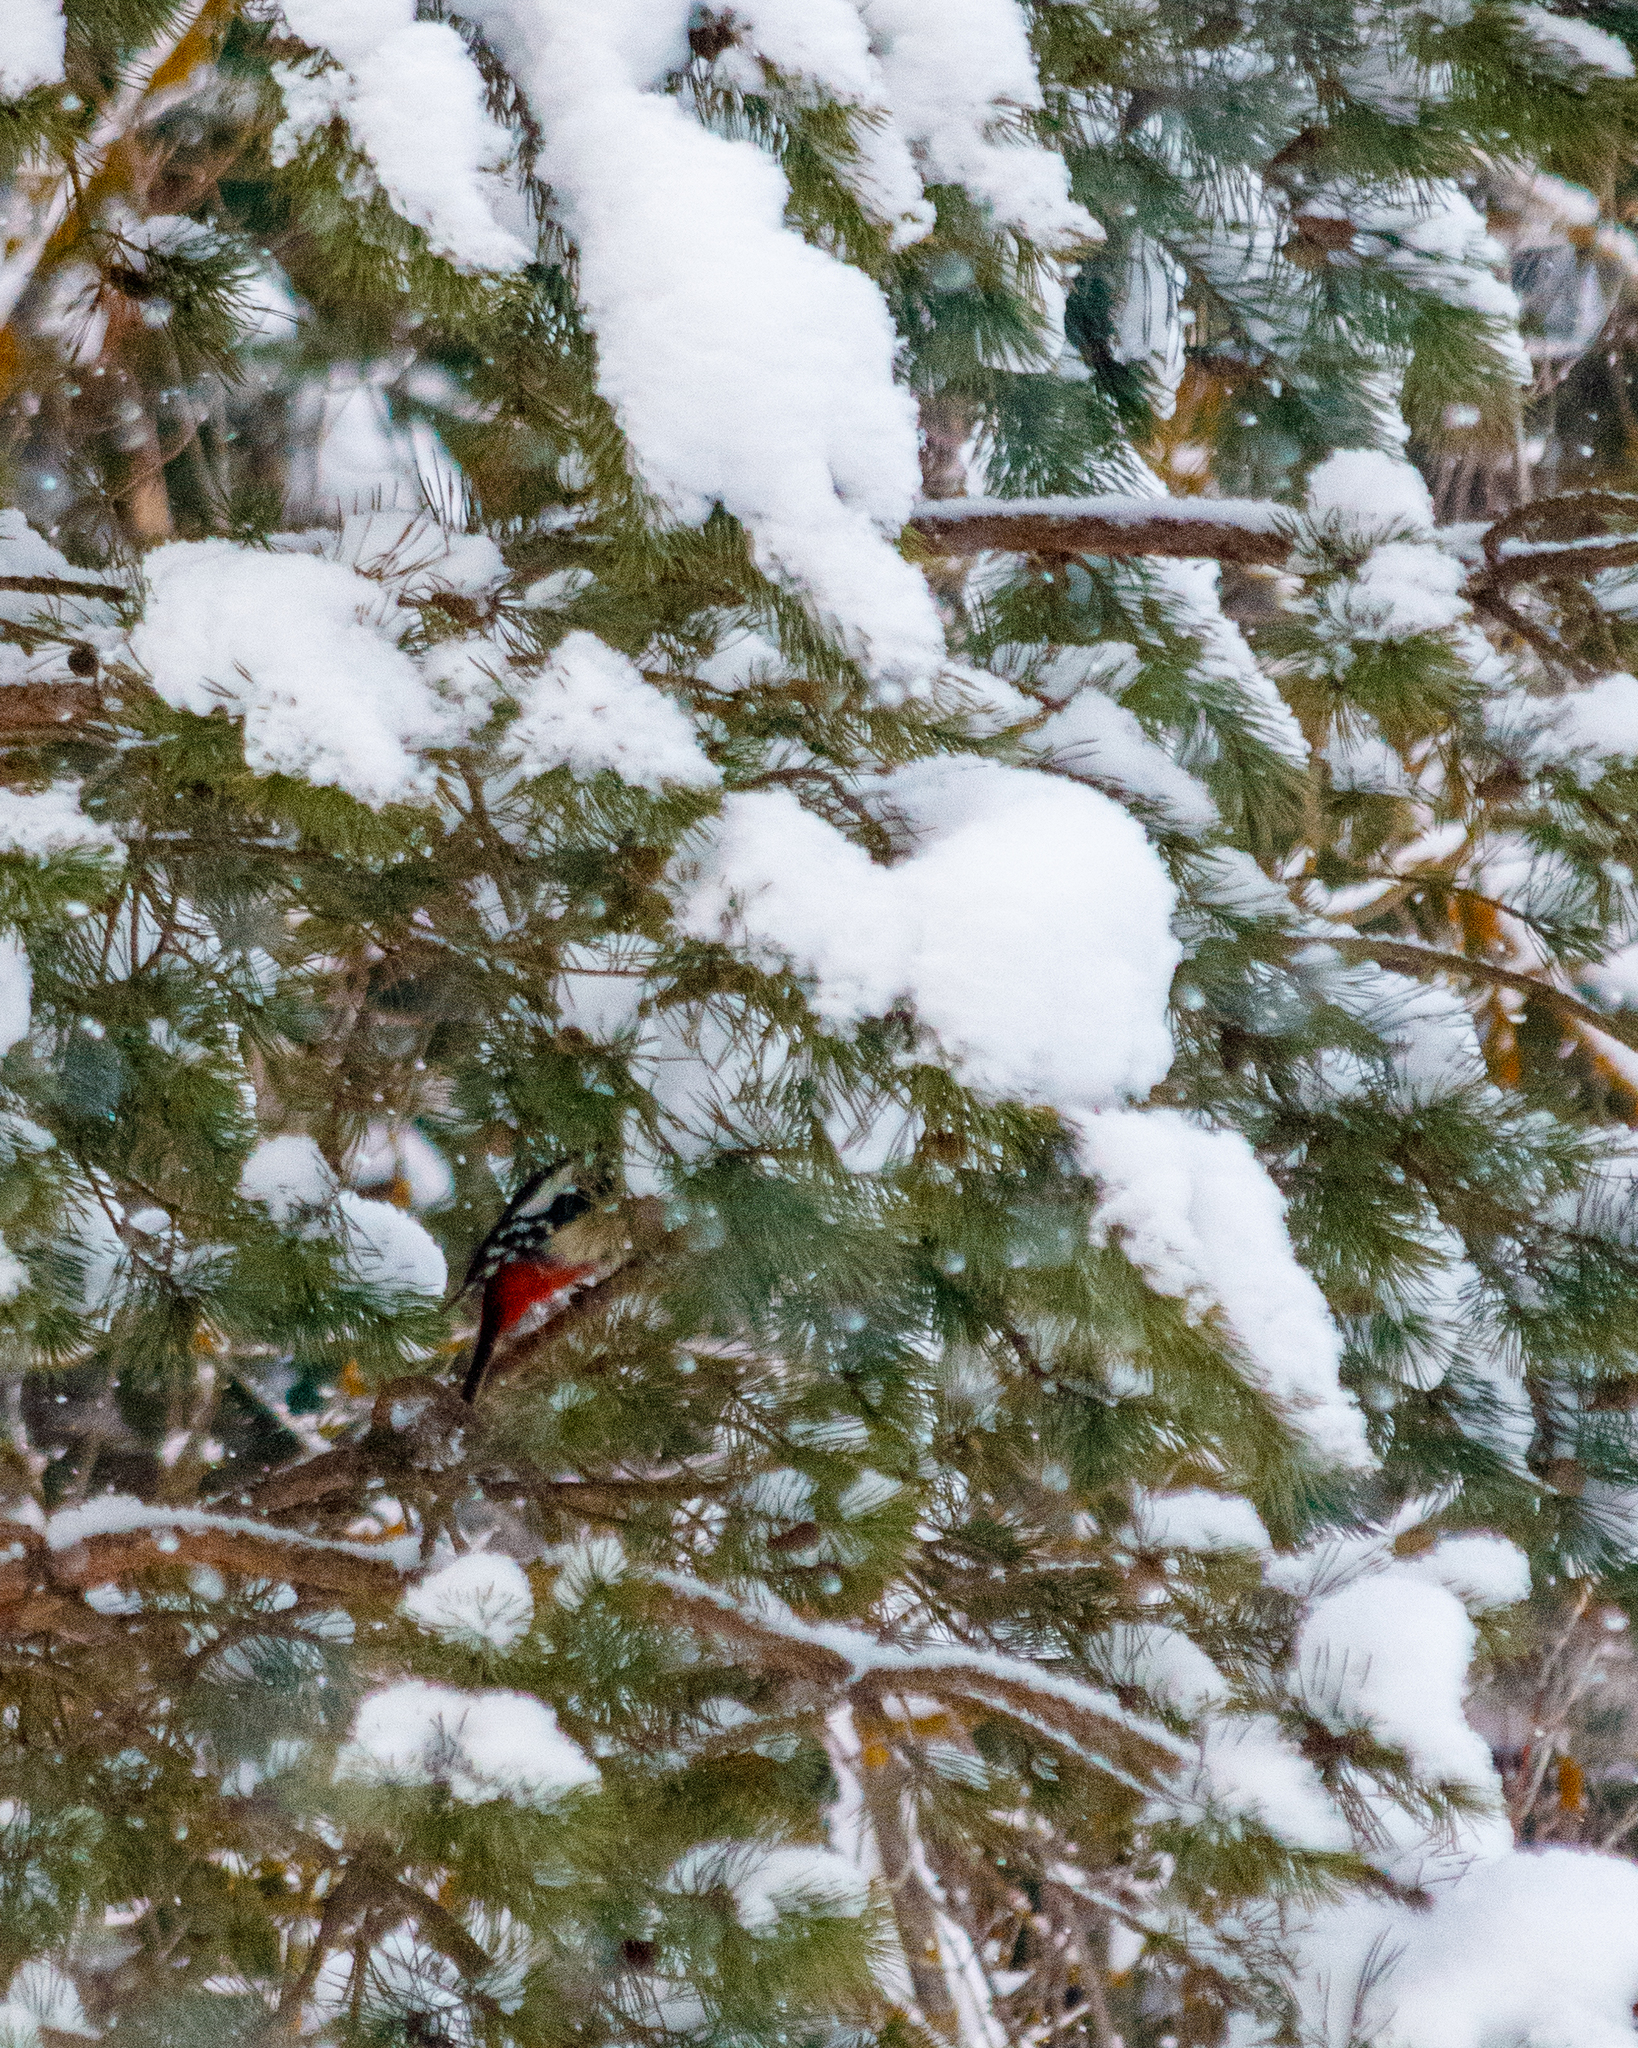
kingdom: Animalia
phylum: Chordata
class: Aves
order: Piciformes
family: Picidae
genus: Dendrocopos
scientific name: Dendrocopos major
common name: Great spotted woodpecker
